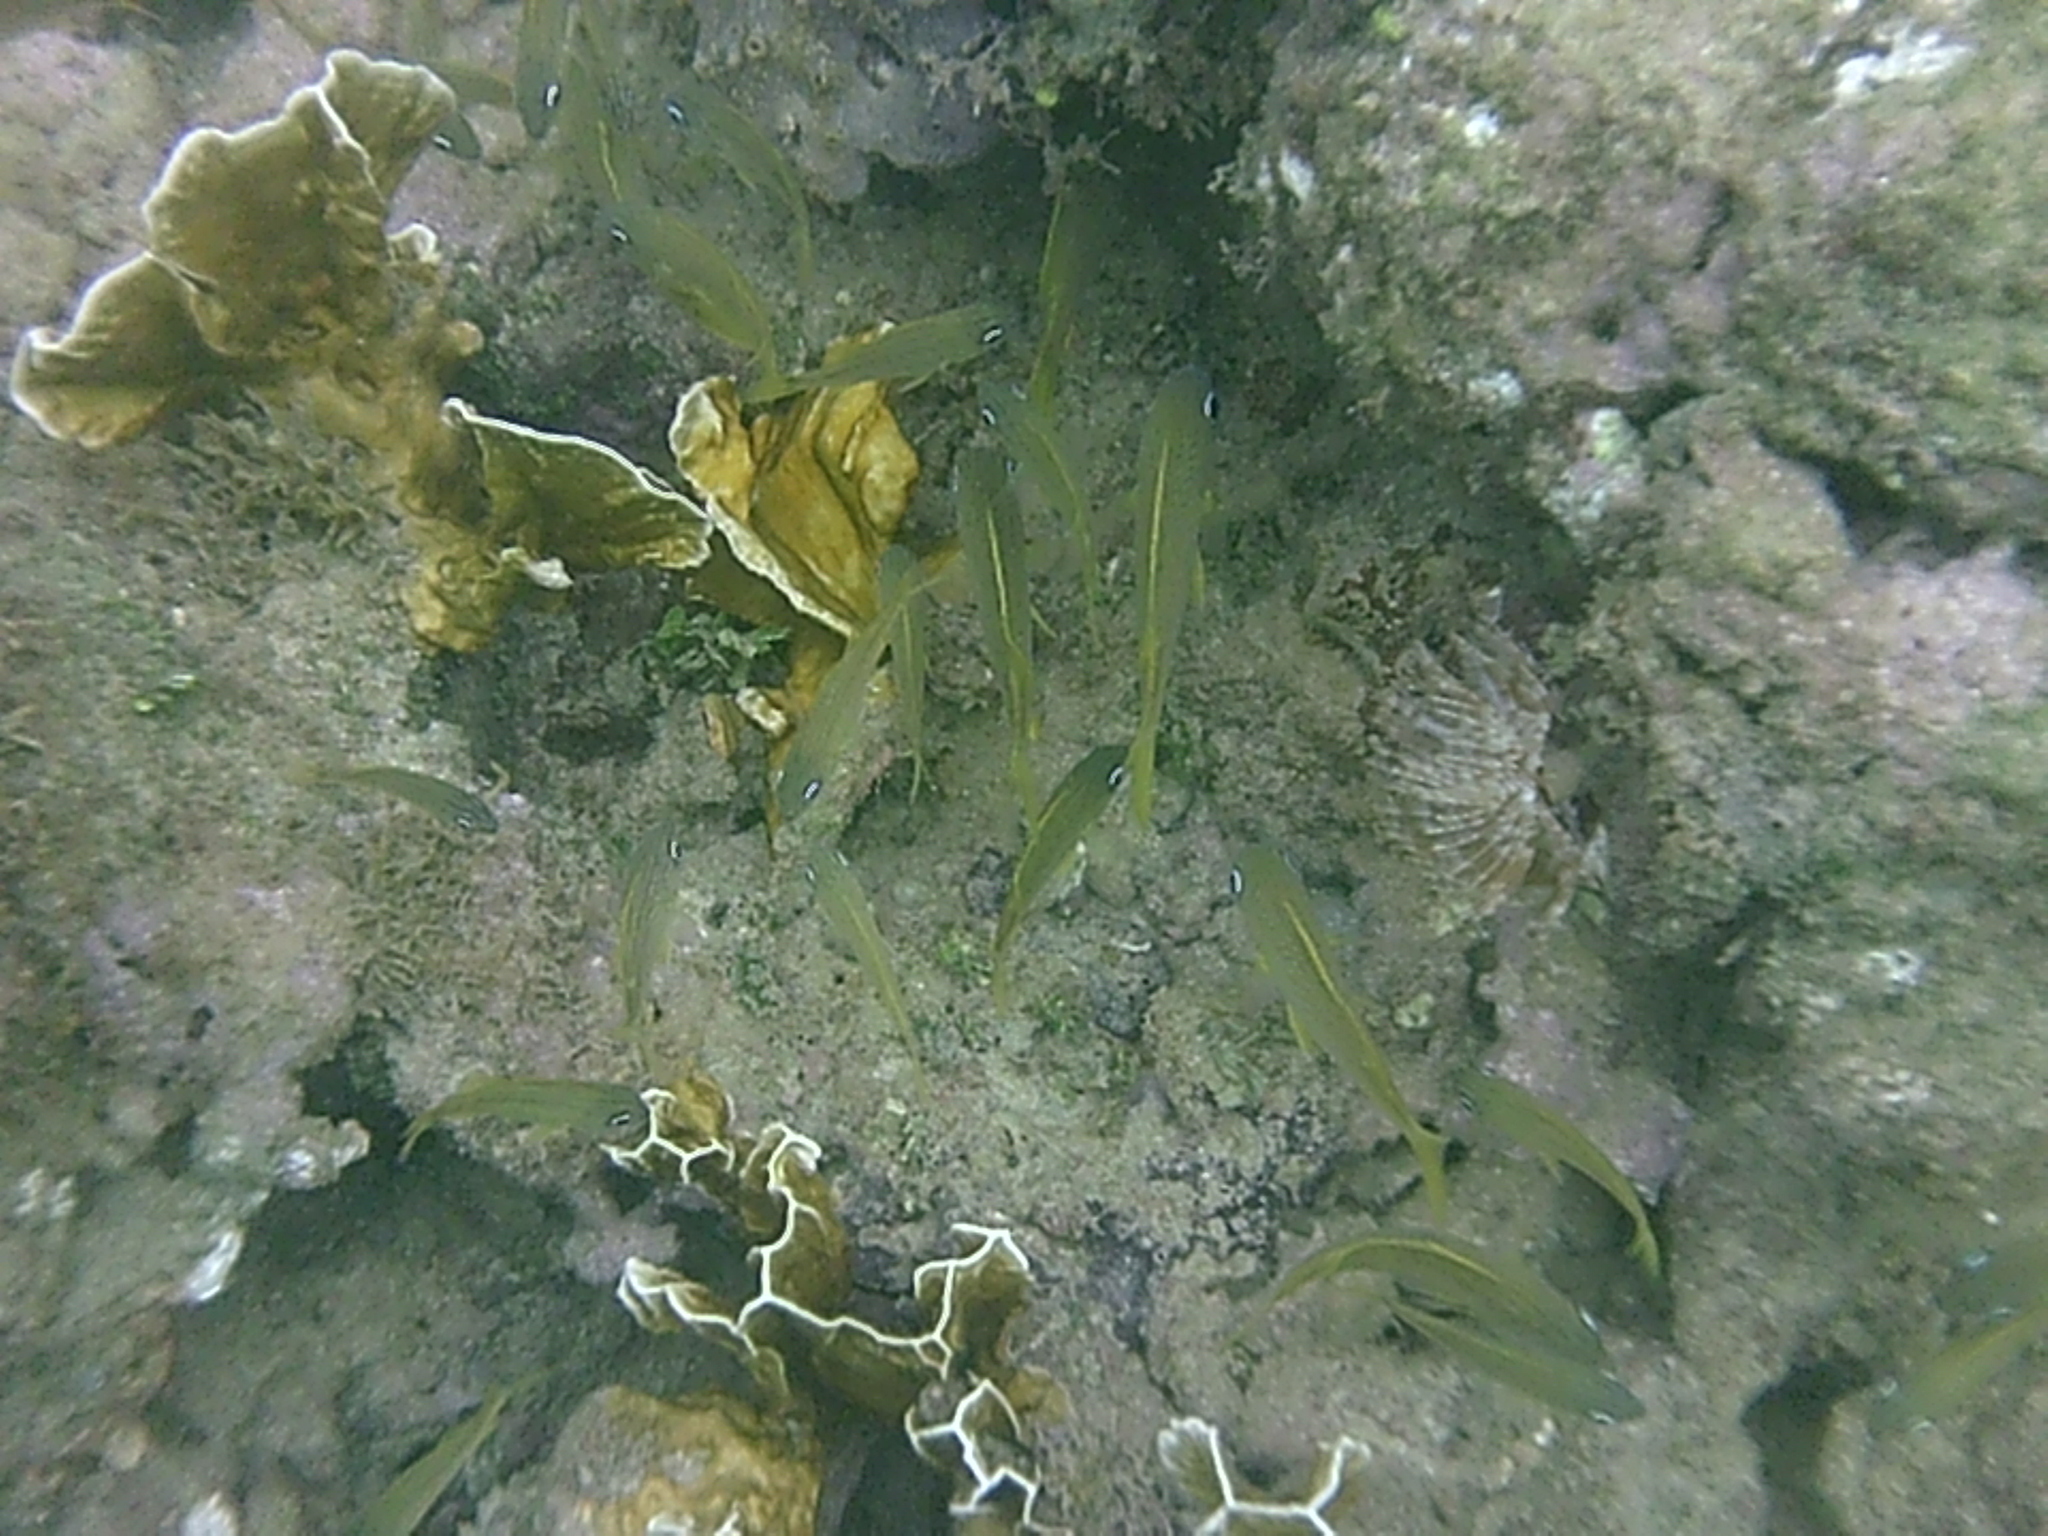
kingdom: Animalia
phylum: Chordata
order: Perciformes
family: Haemulidae
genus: Haemulon
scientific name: Haemulon flavolineatum
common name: French grunt
